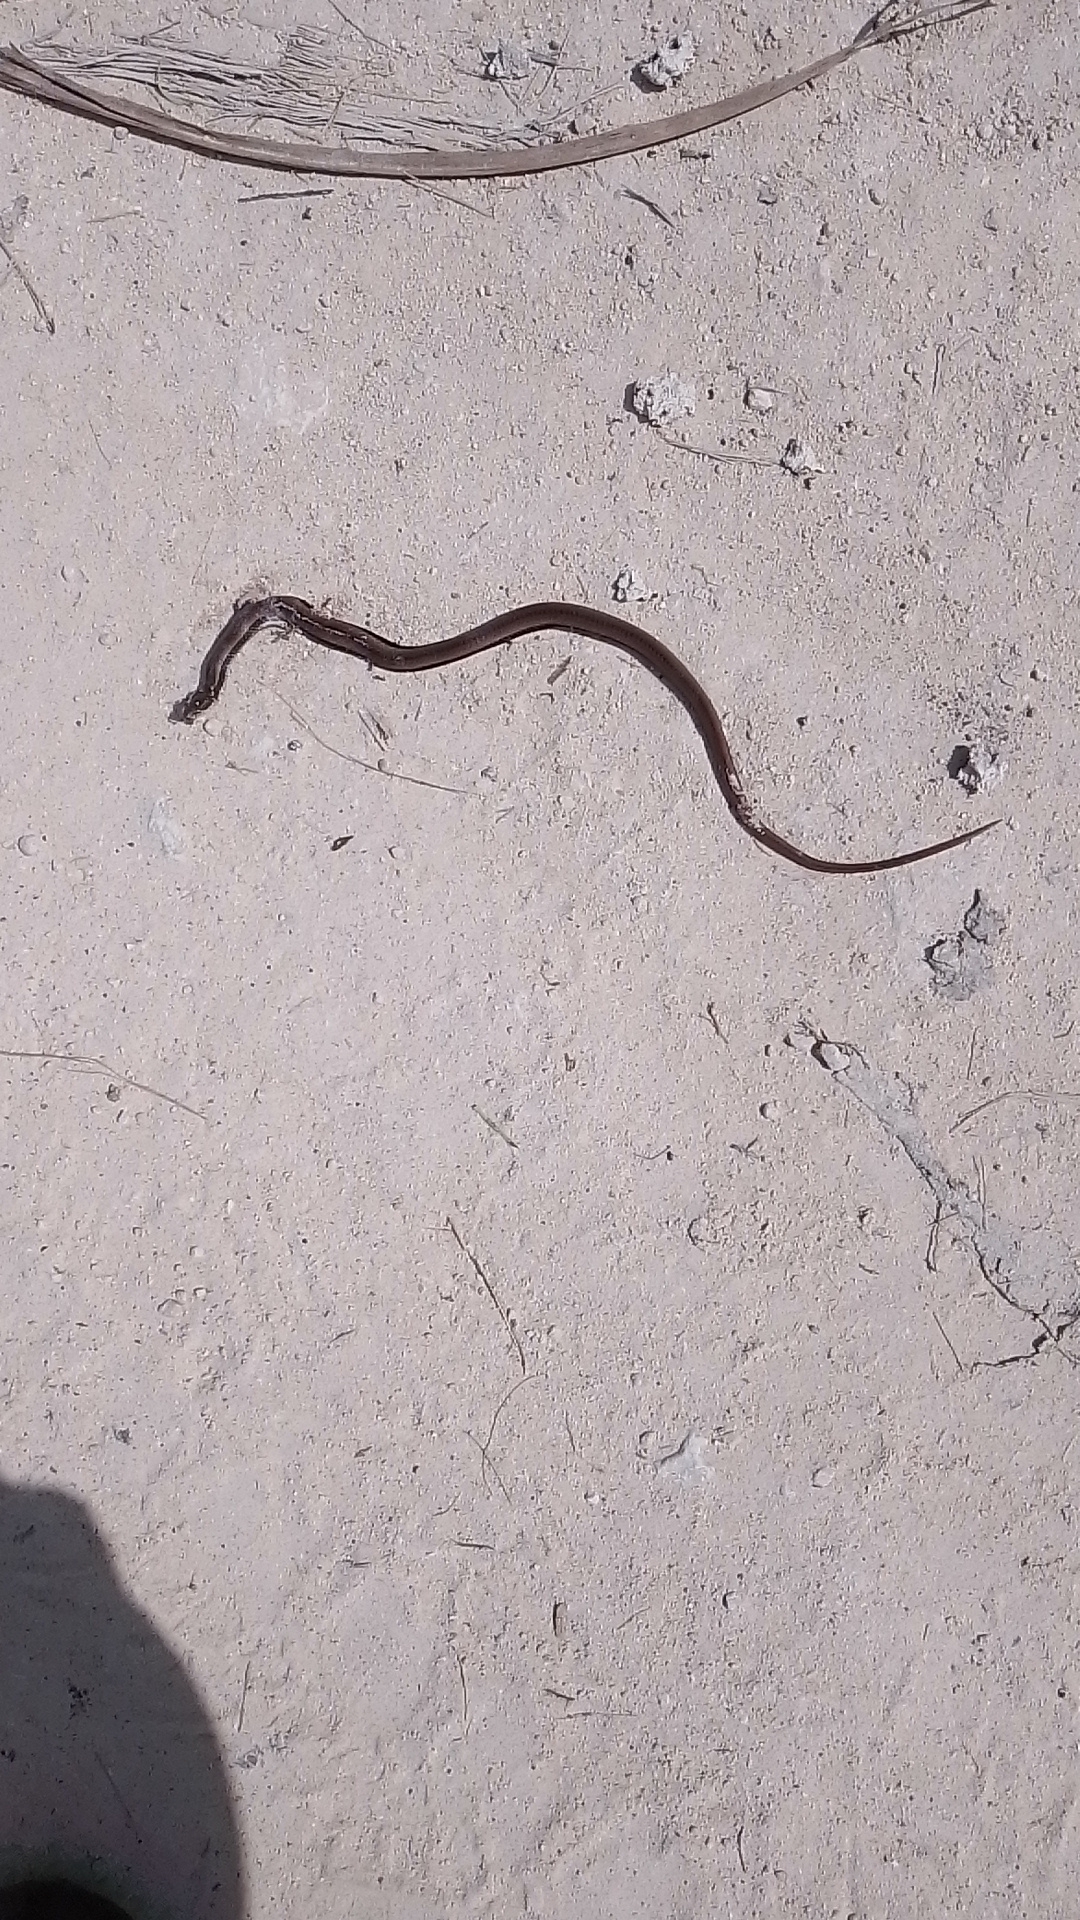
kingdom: Animalia
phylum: Chordata
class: Squamata
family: Colubridae
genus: Coniophanes
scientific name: Coniophanes imperialis
